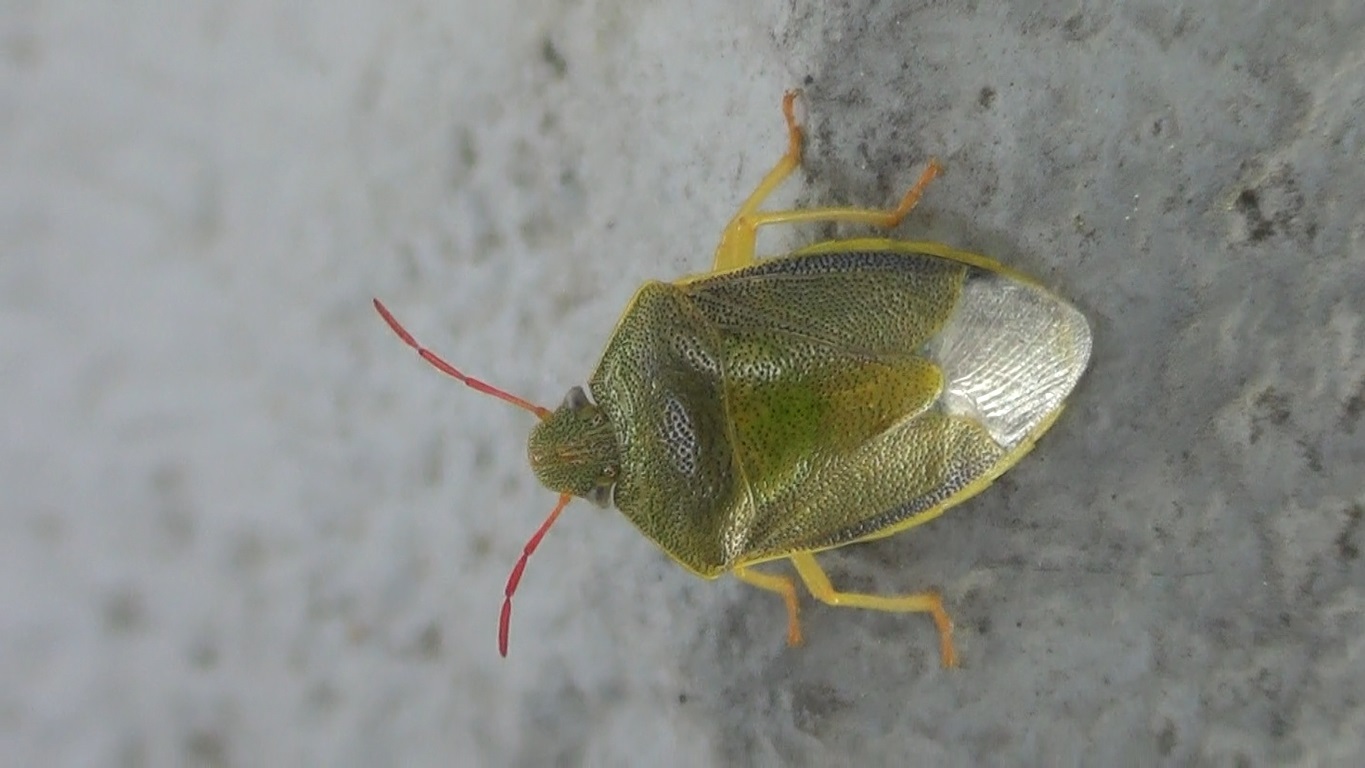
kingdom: Animalia
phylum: Arthropoda
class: Insecta
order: Hemiptera
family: Pentatomidae
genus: Piezodorus
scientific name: Piezodorus lituratus
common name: Stink bug
